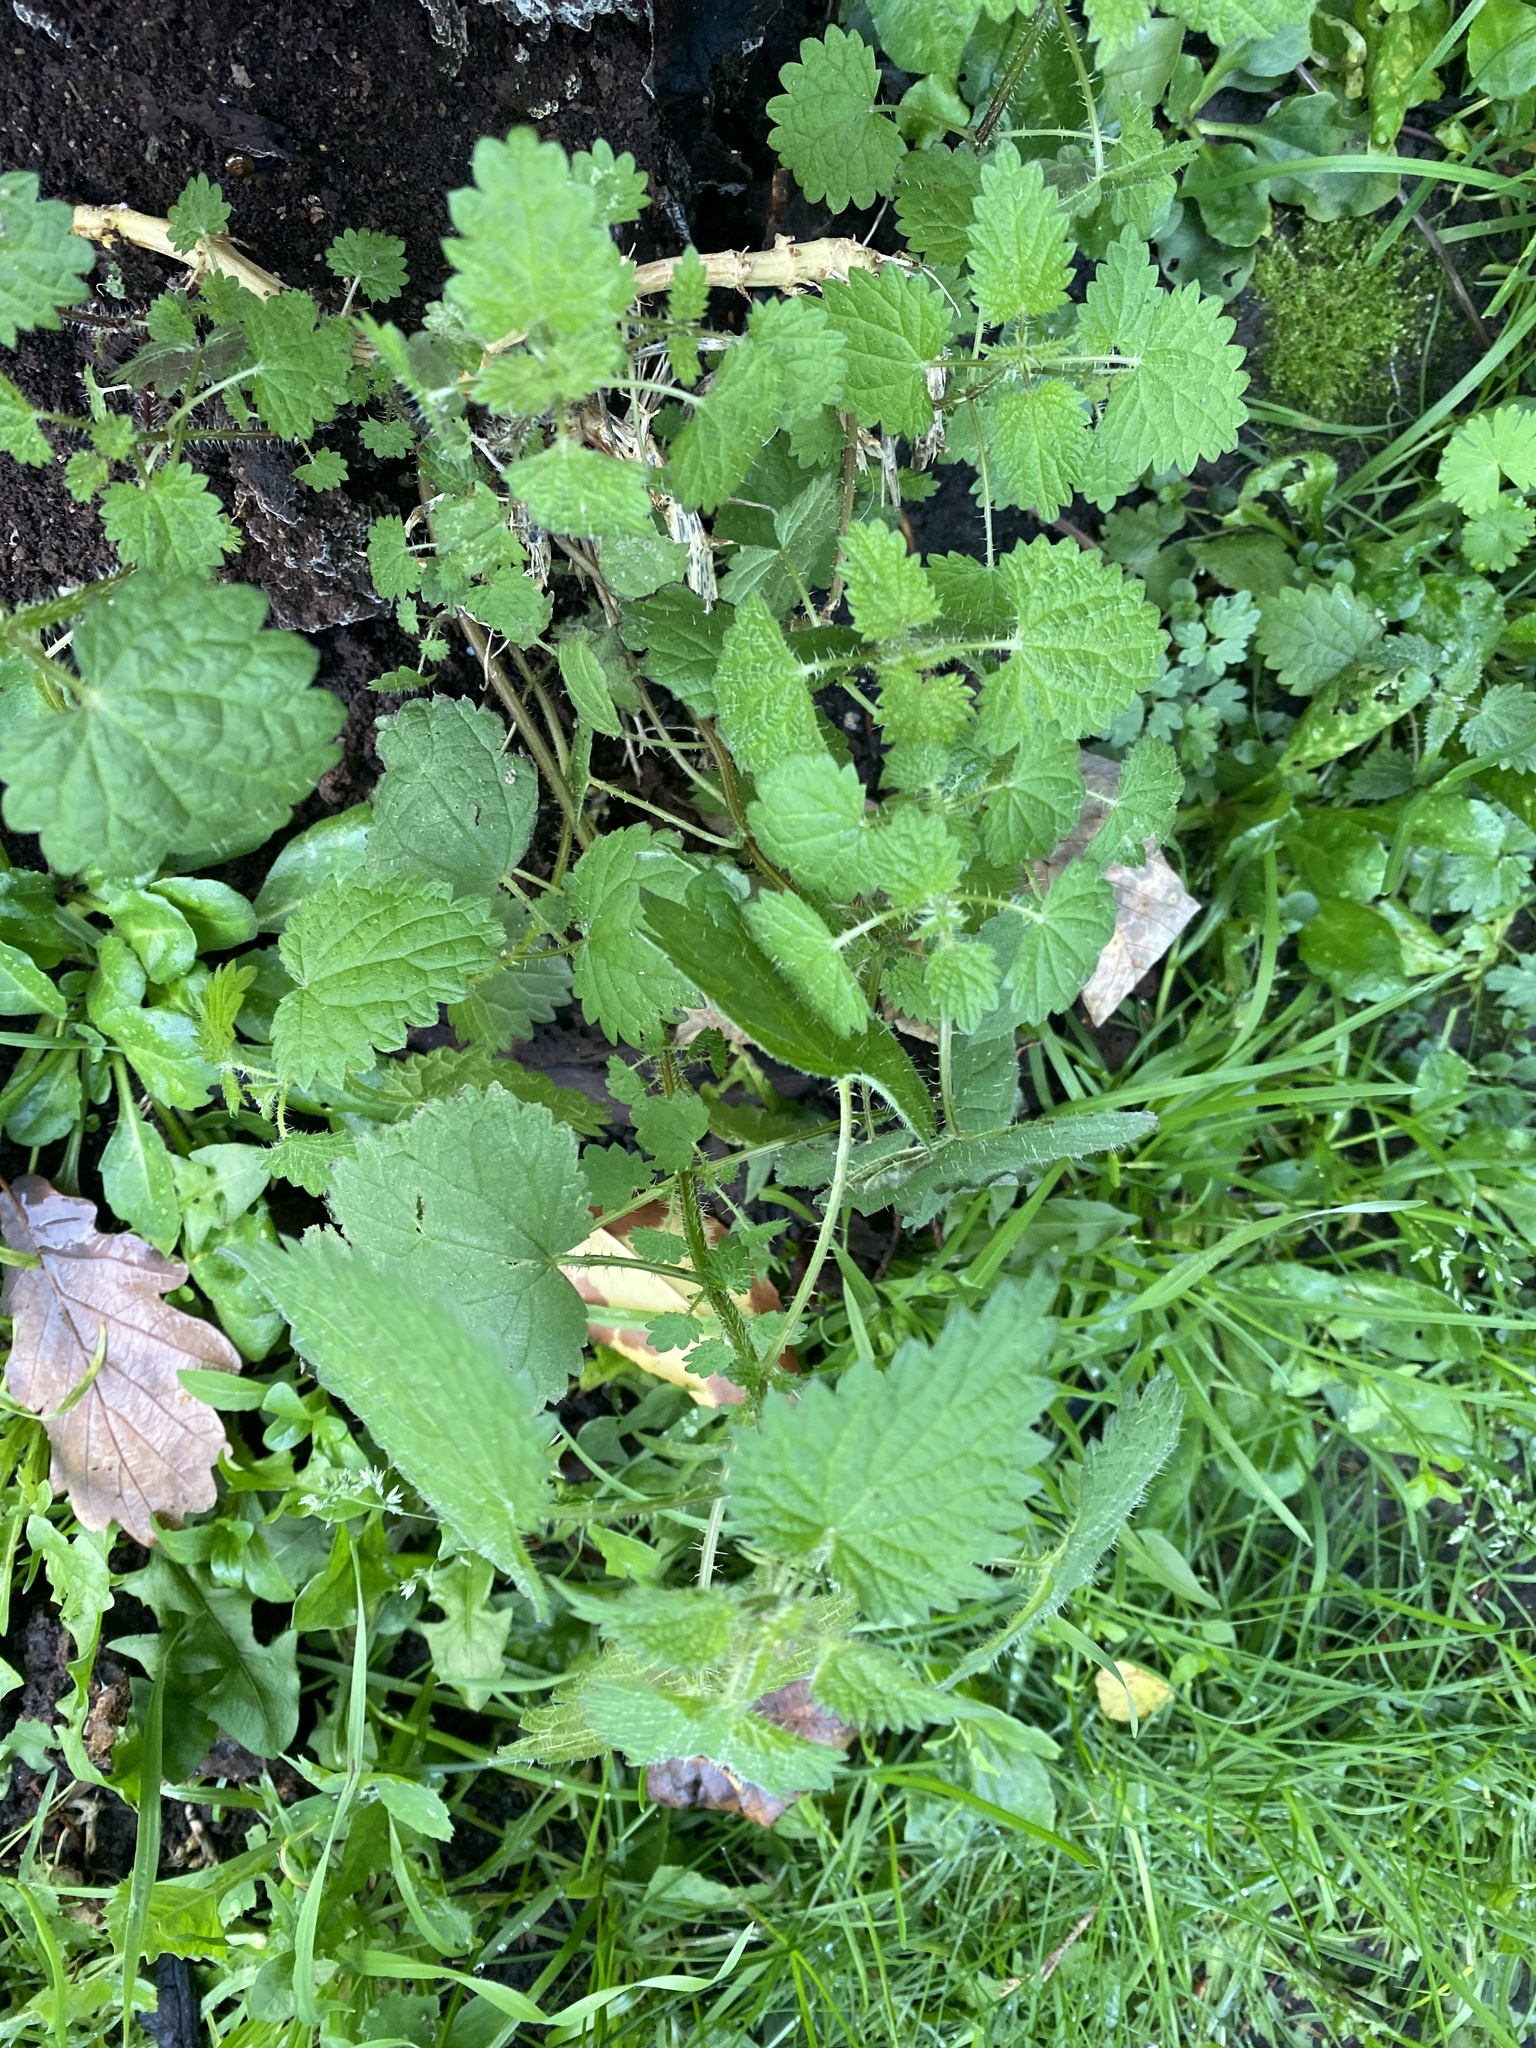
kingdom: Plantae
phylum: Tracheophyta
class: Magnoliopsida
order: Rosales
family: Urticaceae
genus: Urtica
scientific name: Urtica dioica
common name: Common nettle
